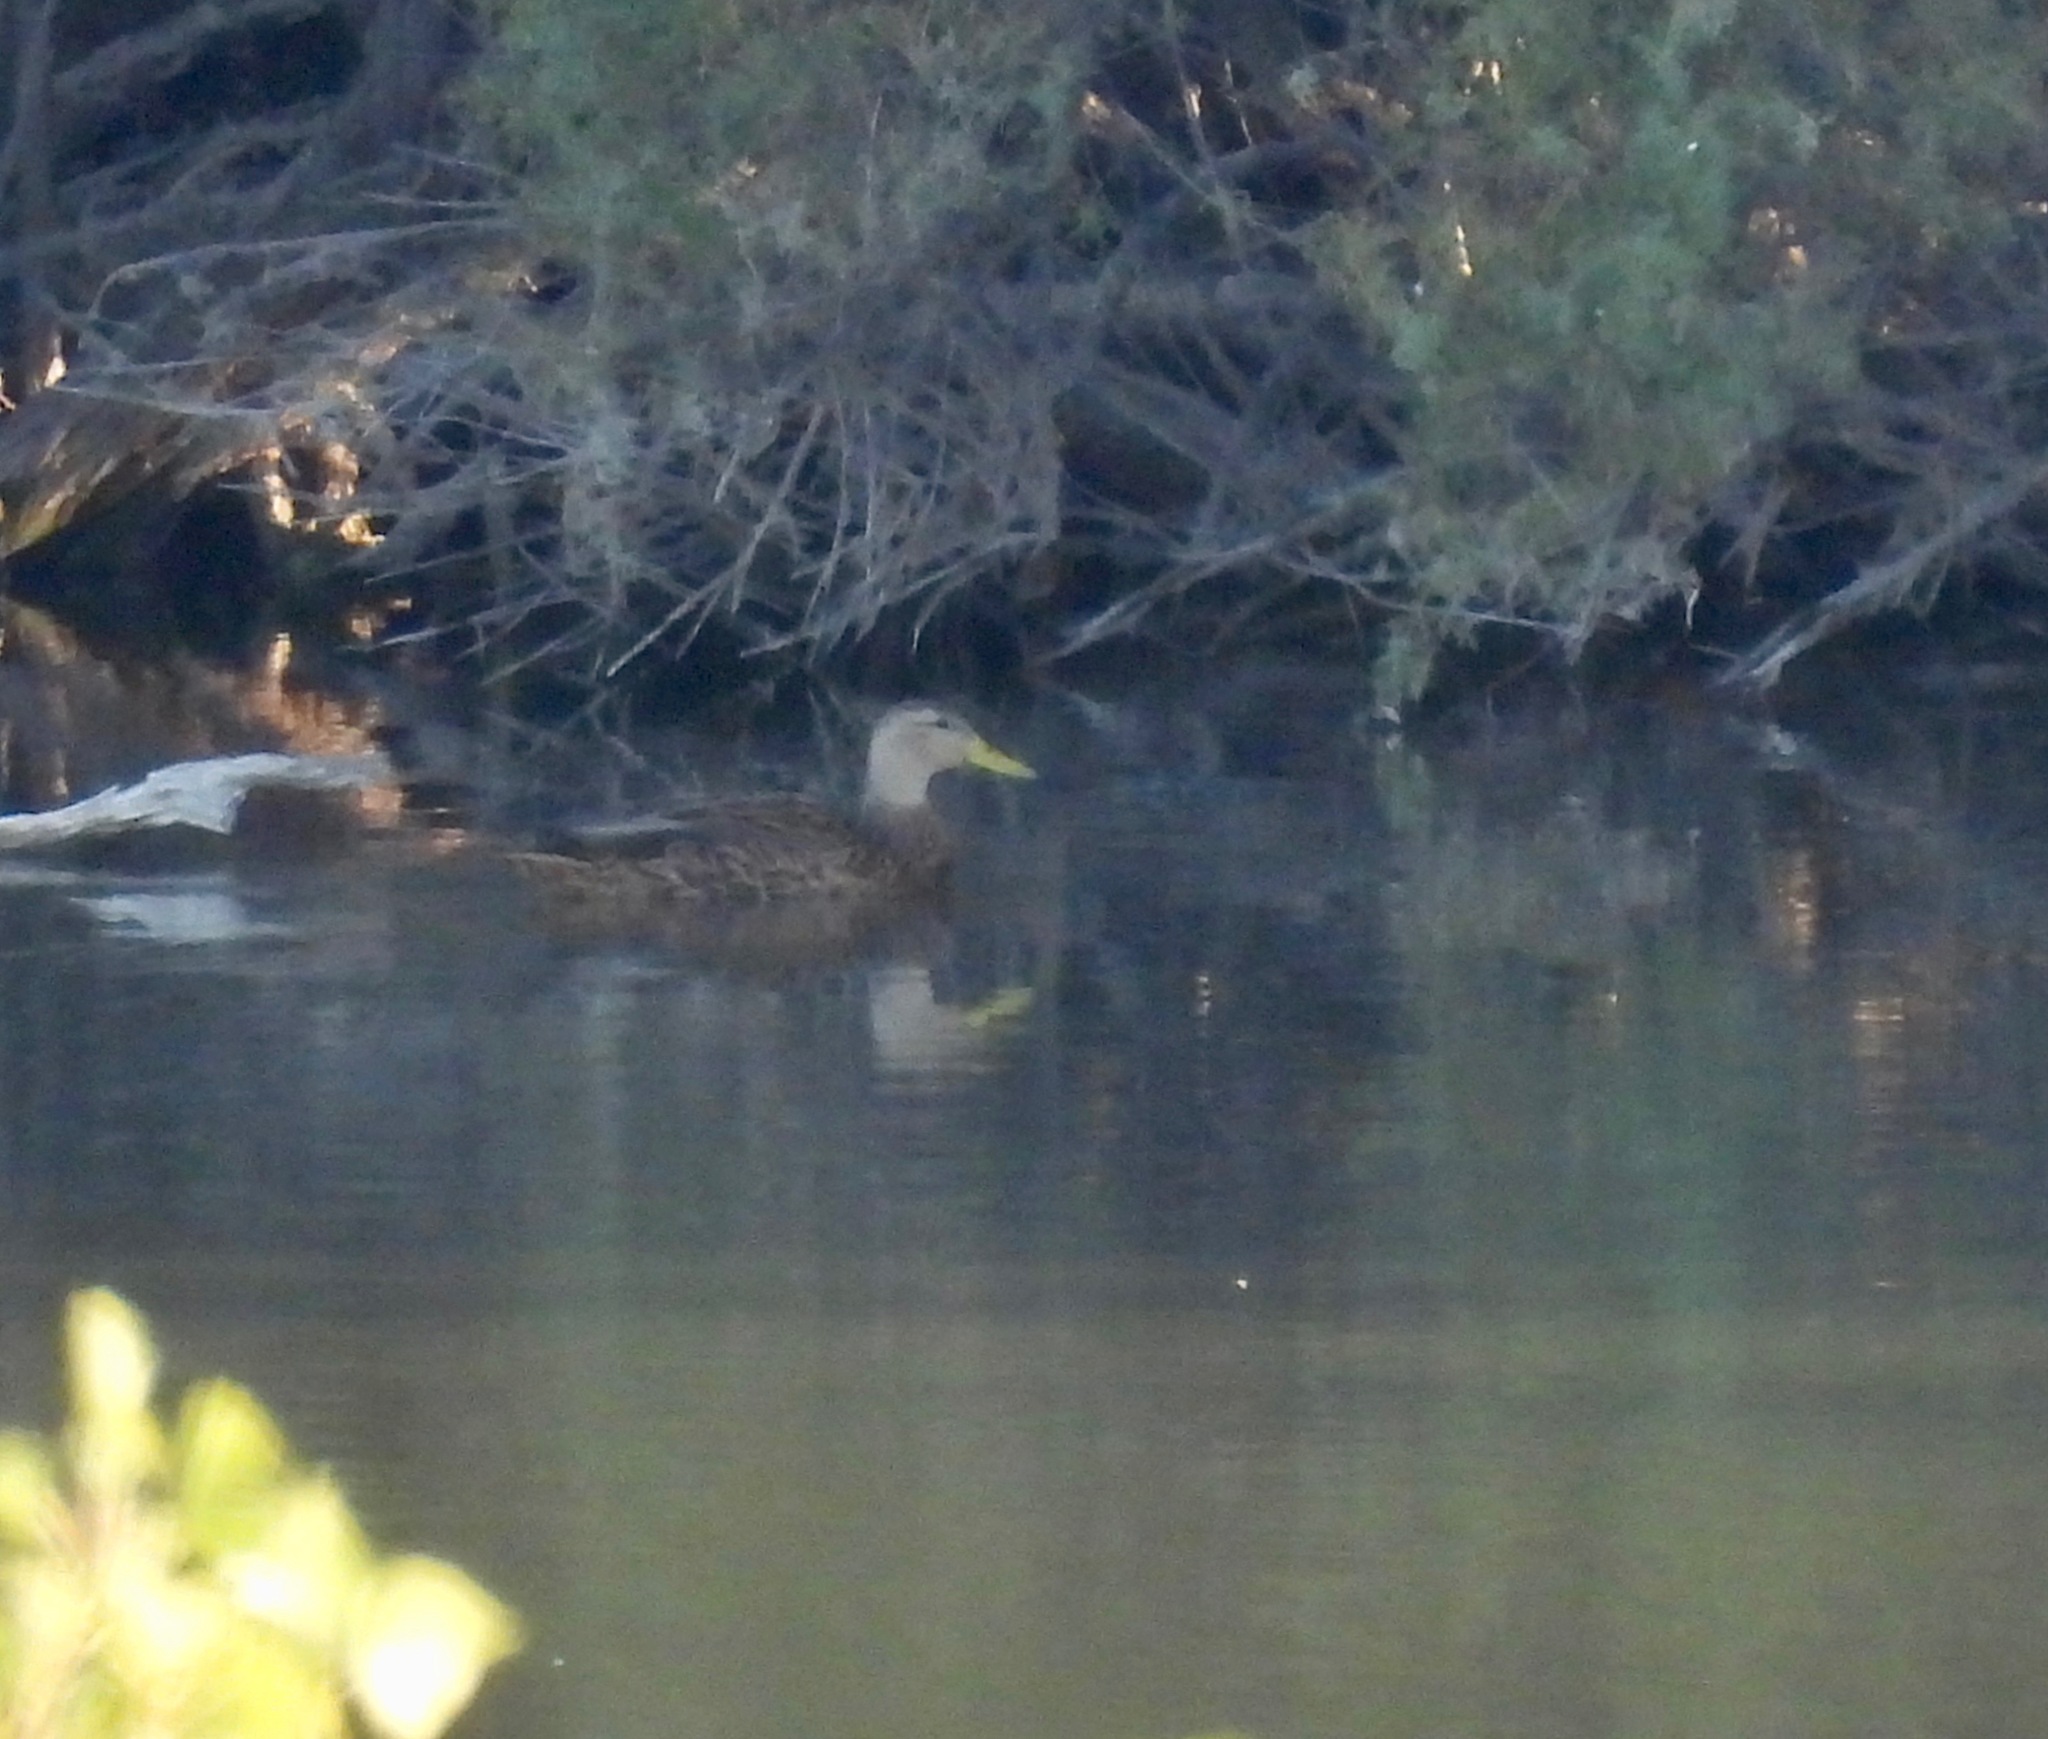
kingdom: Animalia
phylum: Chordata
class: Aves
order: Anseriformes
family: Anatidae
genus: Anas
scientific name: Anas diazi
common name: Mexican duck
